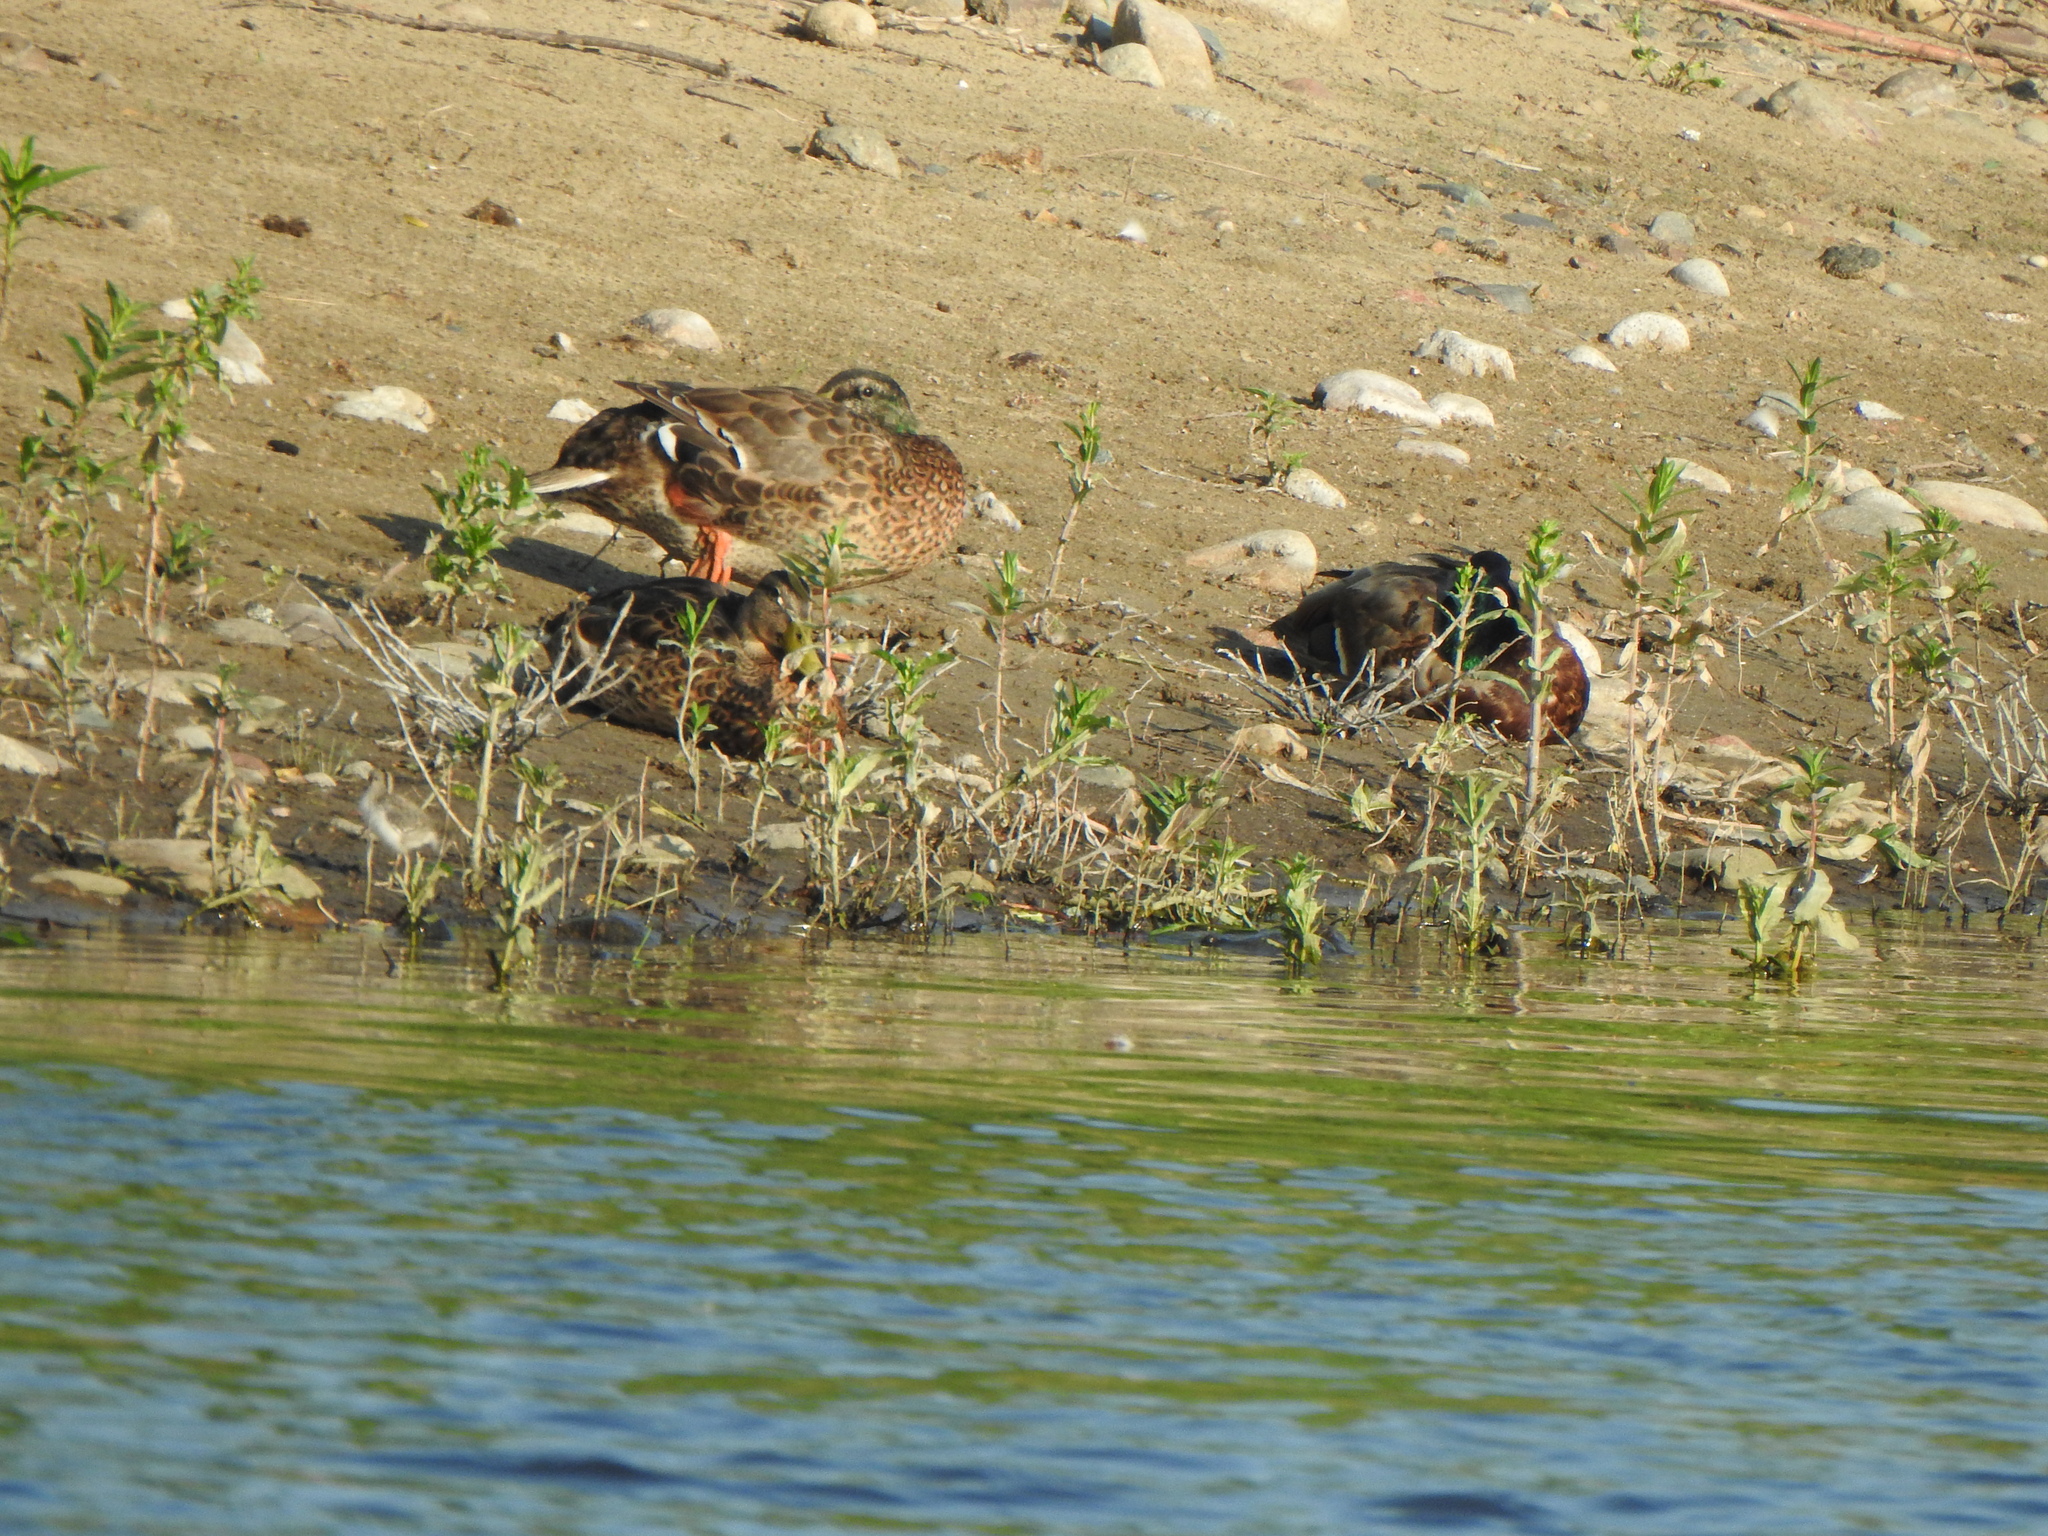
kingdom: Animalia
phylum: Chordata
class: Aves
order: Anseriformes
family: Anatidae
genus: Anas
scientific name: Anas platyrhynchos
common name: Mallard
